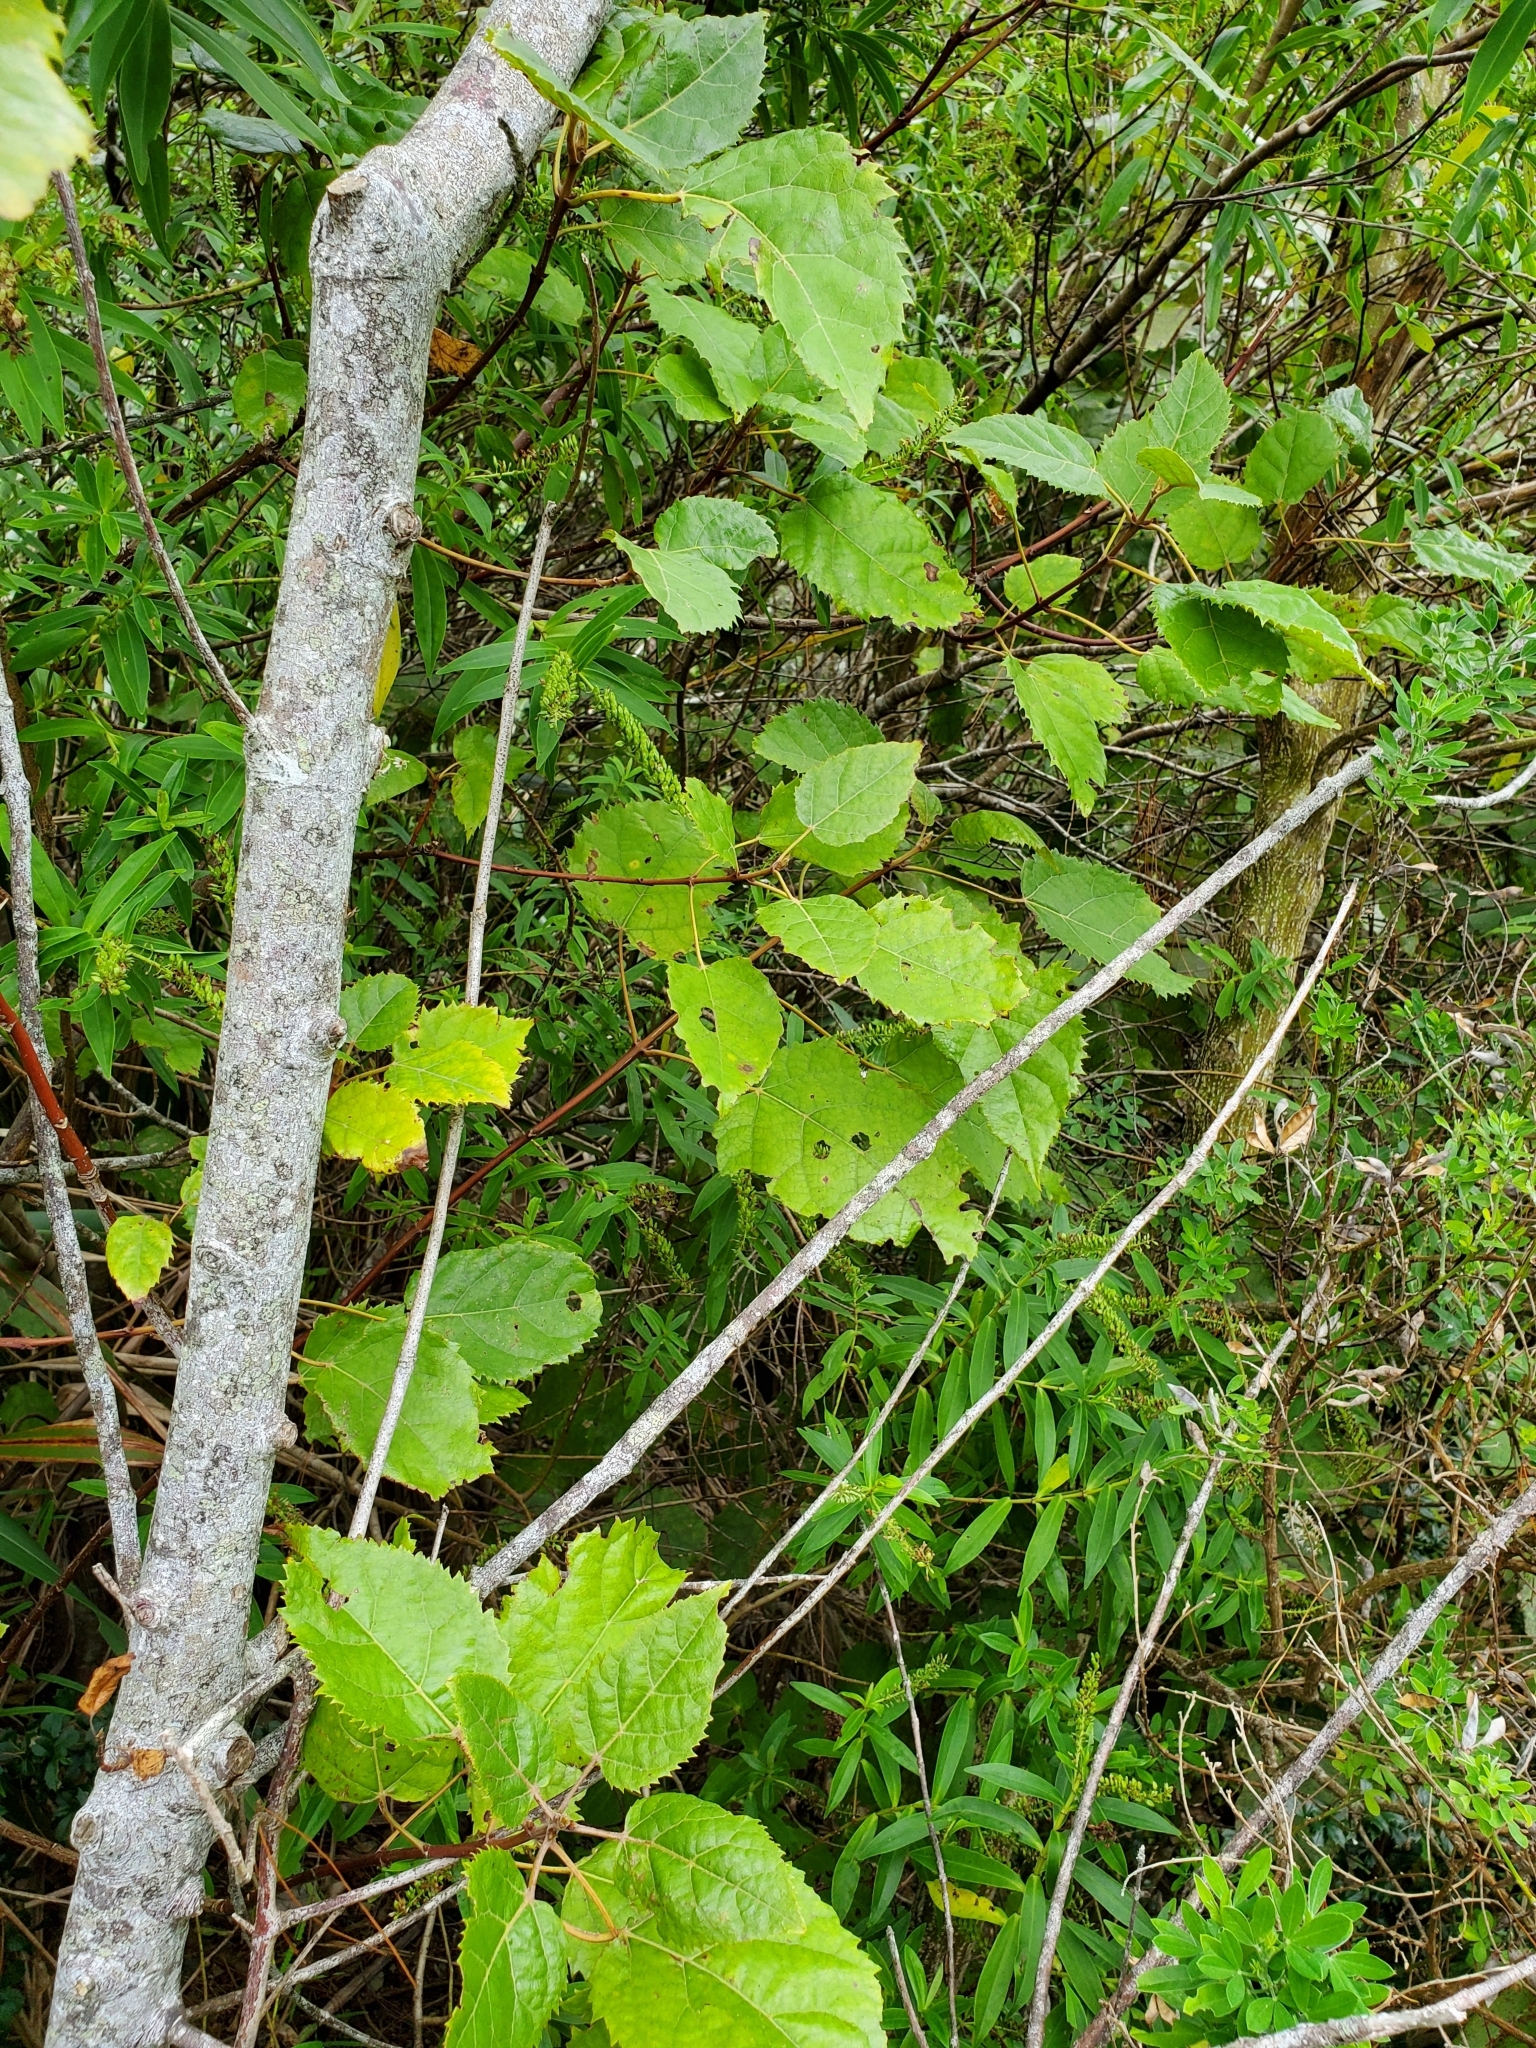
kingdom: Plantae
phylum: Tracheophyta
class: Magnoliopsida
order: Oxalidales
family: Elaeocarpaceae
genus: Aristotelia
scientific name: Aristotelia serrata
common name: New zealand wineberry
